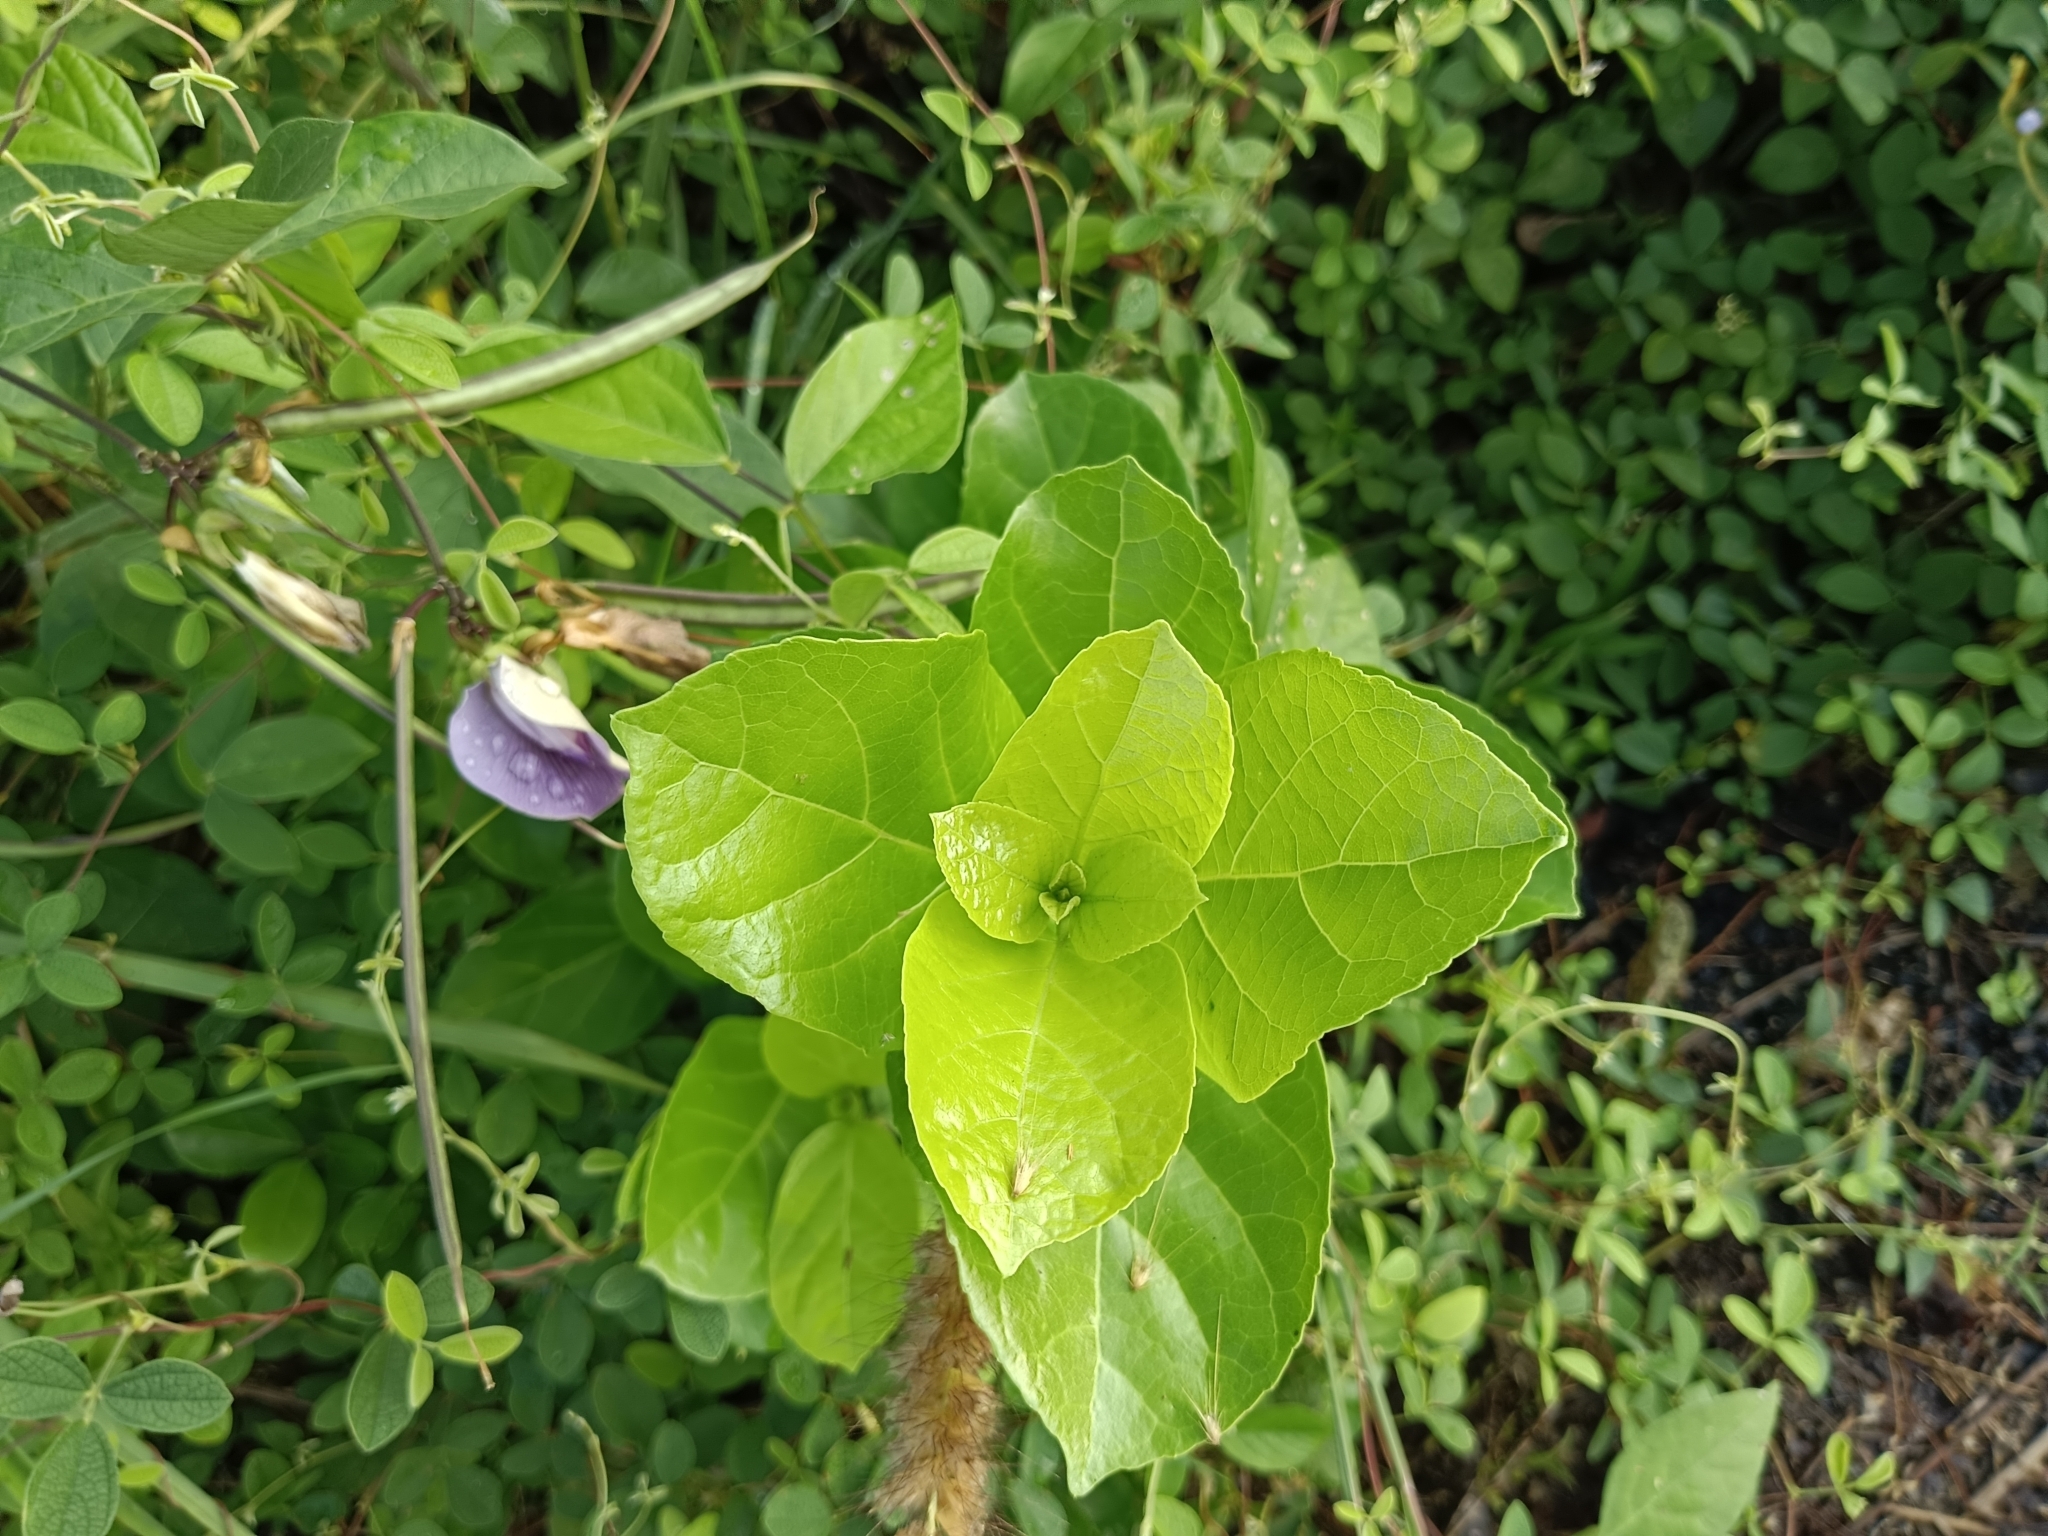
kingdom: Plantae
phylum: Tracheophyta
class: Magnoliopsida
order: Lamiales
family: Lamiaceae
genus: Premna
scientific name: Premna serratifolia
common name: Bastard guelder
